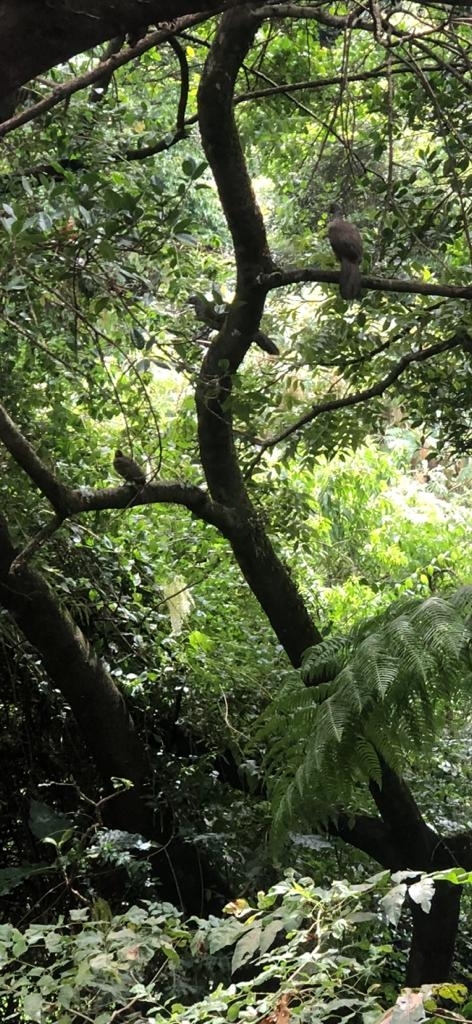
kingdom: Animalia
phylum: Chordata
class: Aves
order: Galliformes
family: Cracidae
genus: Penelope
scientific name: Penelope montagnii
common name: Andean guan
